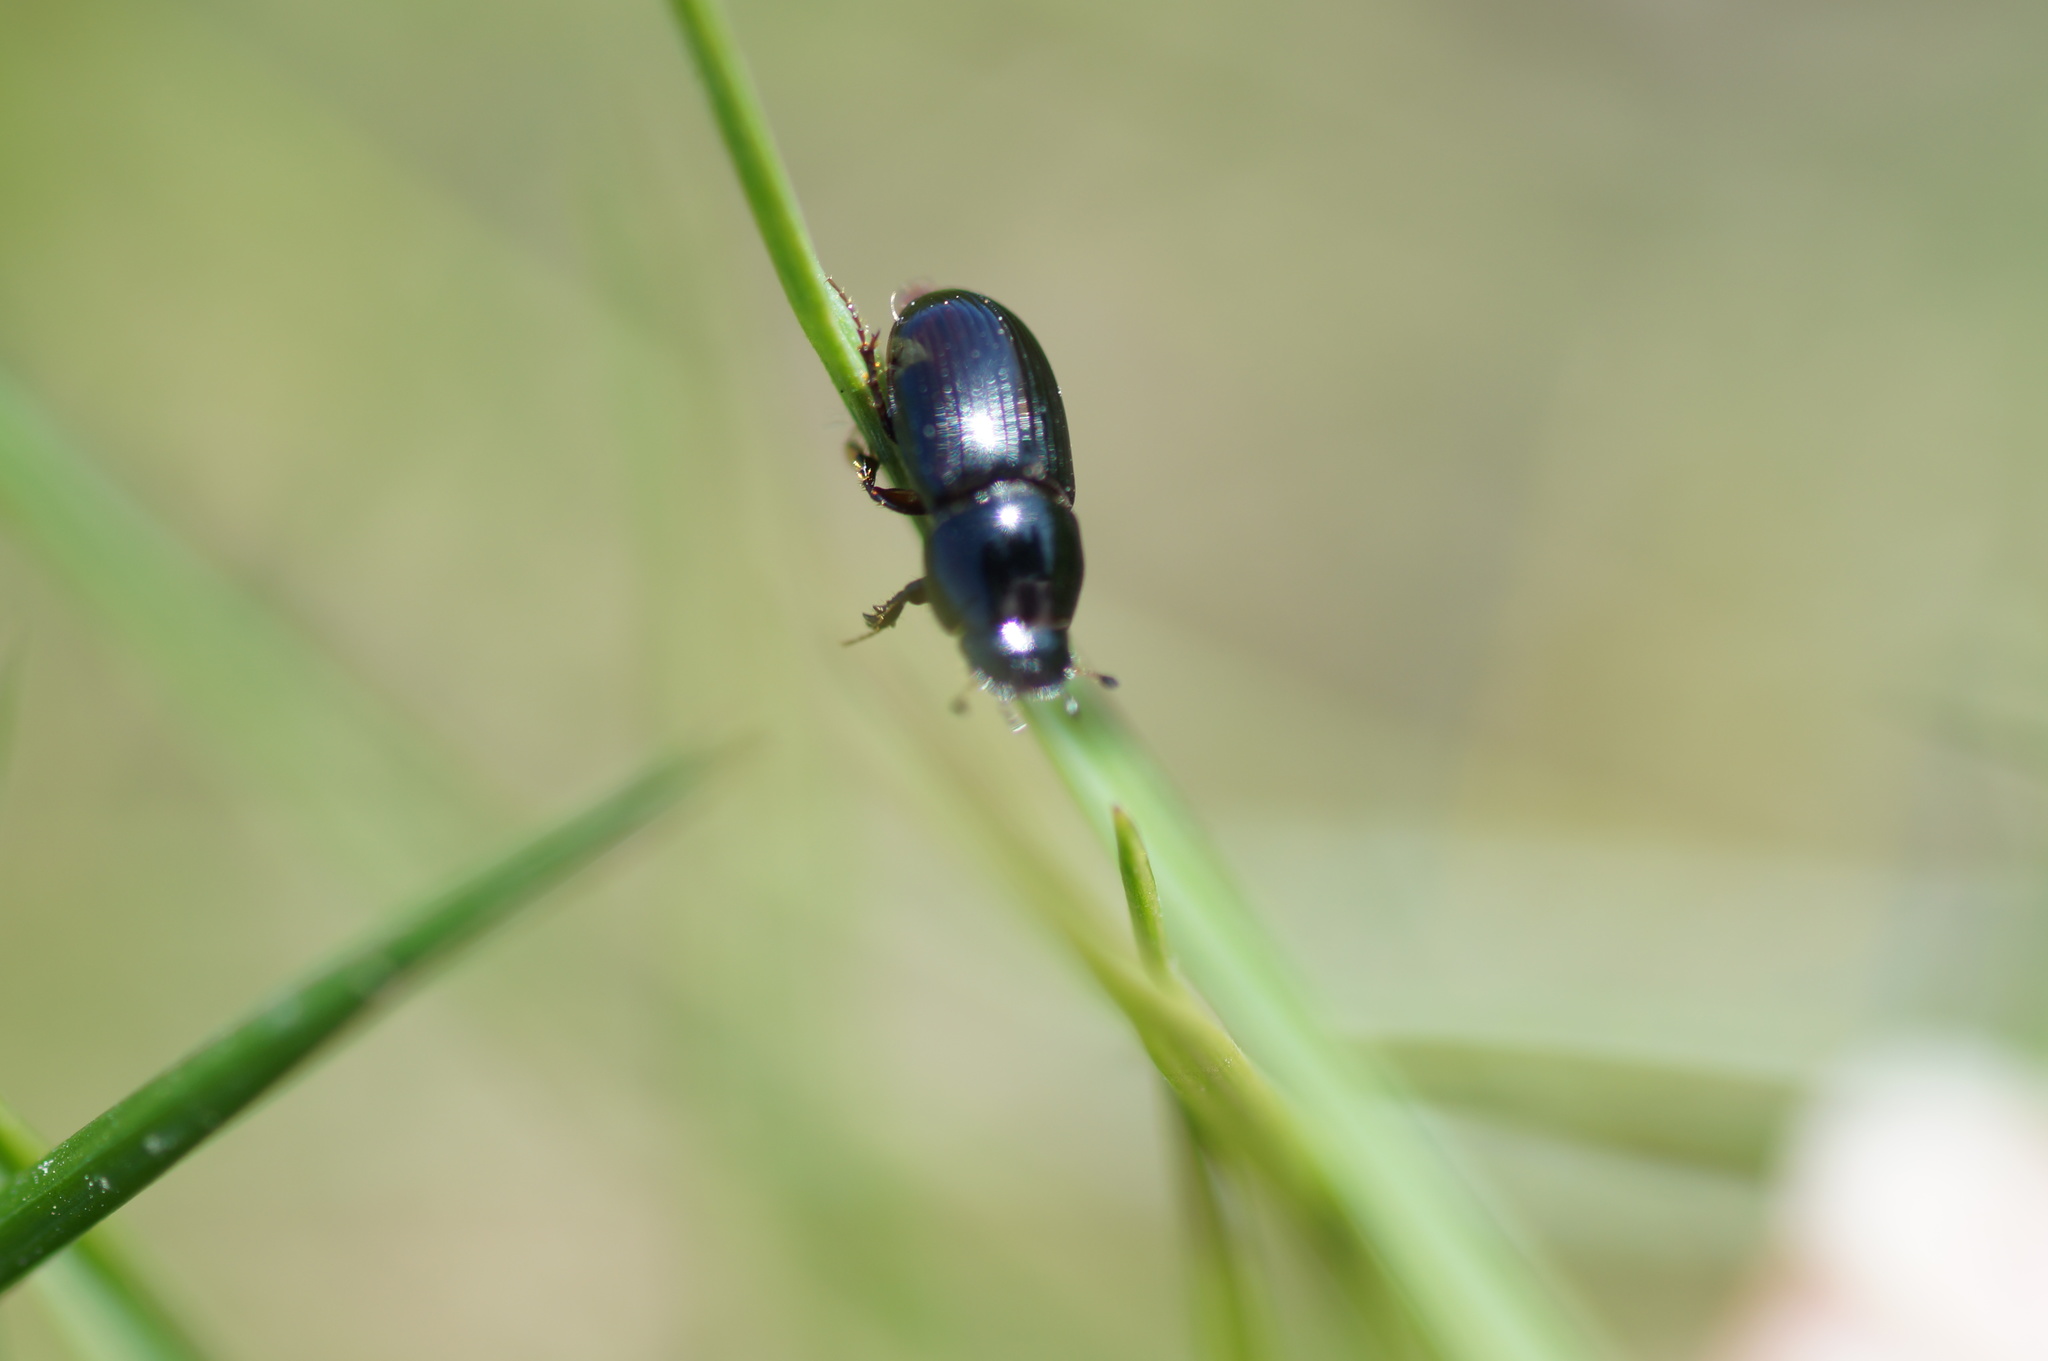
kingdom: Animalia
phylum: Arthropoda
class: Insecta
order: Coleoptera
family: Scarabaeidae
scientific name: Scarabaeidae
